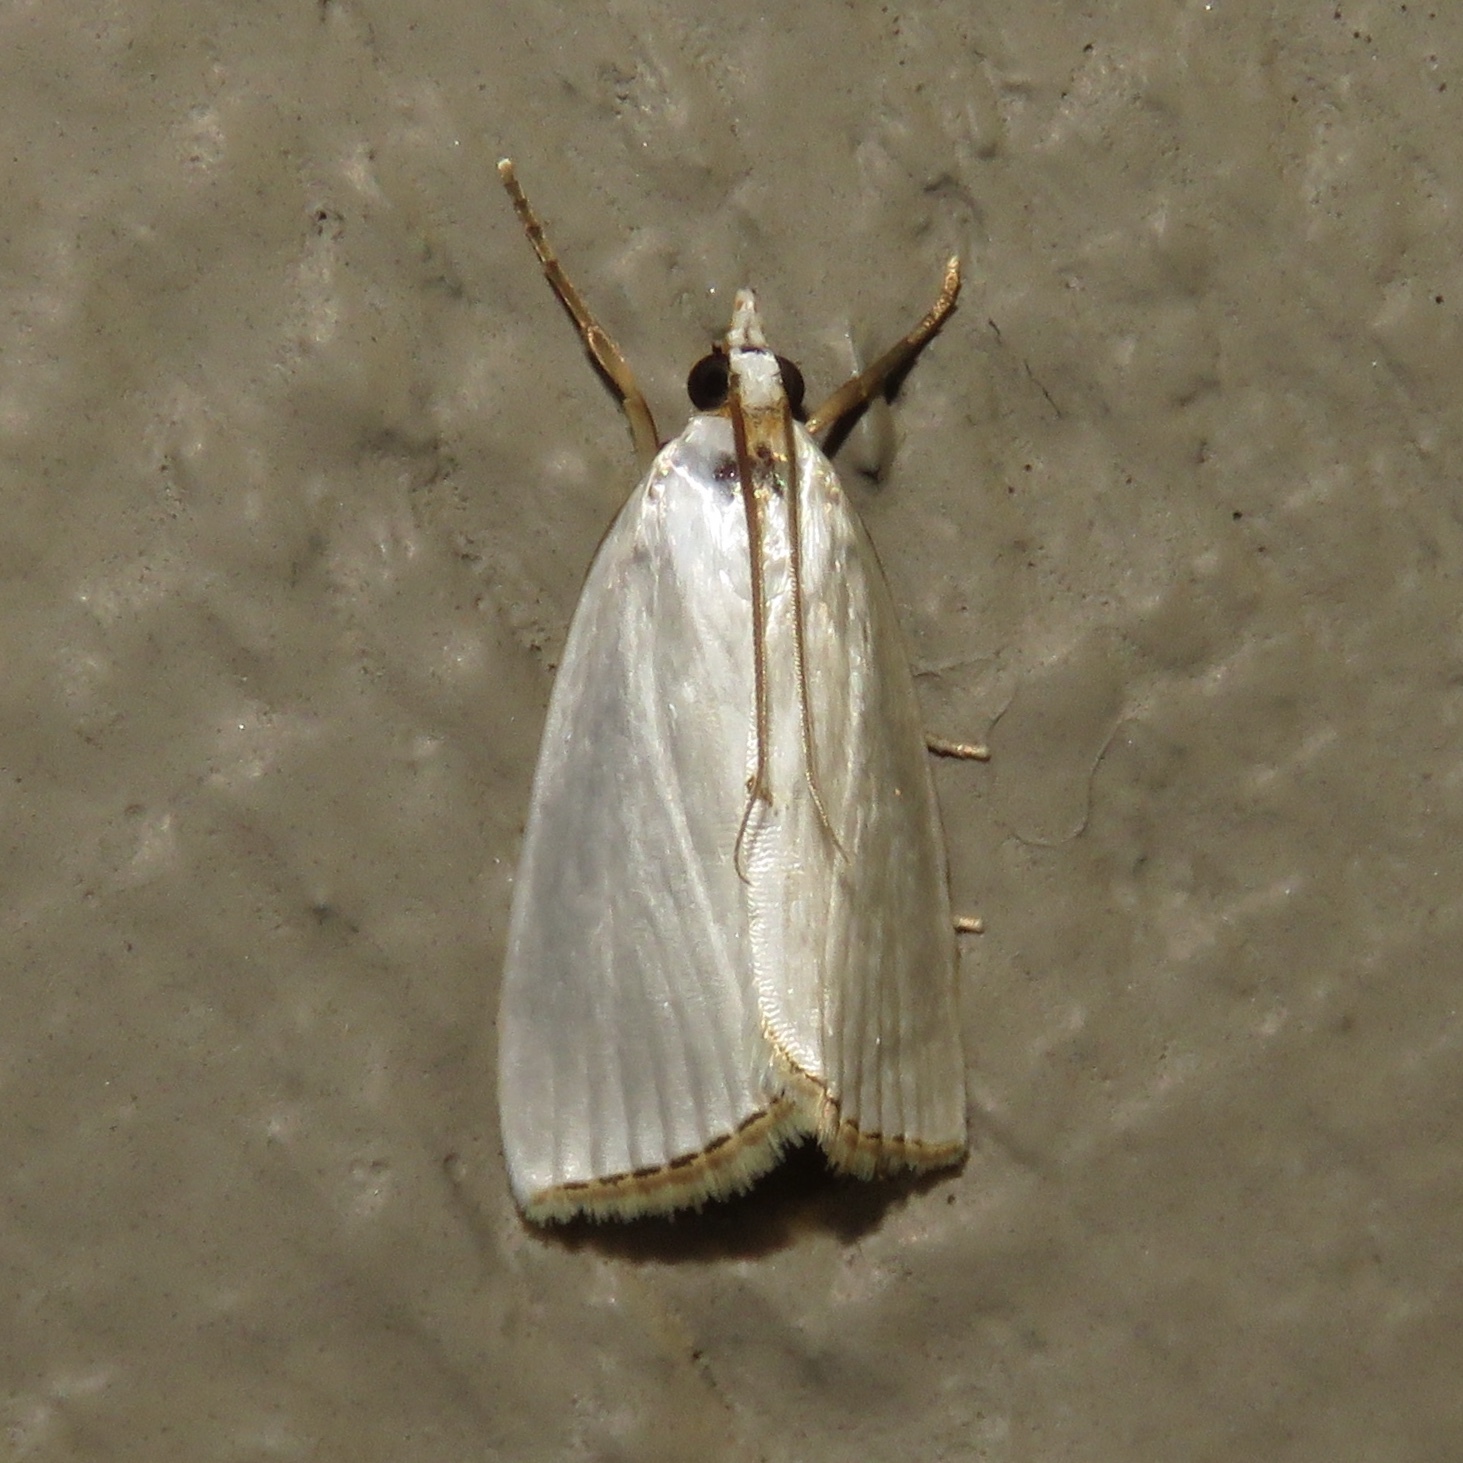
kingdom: Animalia
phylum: Arthropoda
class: Insecta
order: Lepidoptera
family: Crambidae
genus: Argyria
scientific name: Argyria nivalis
